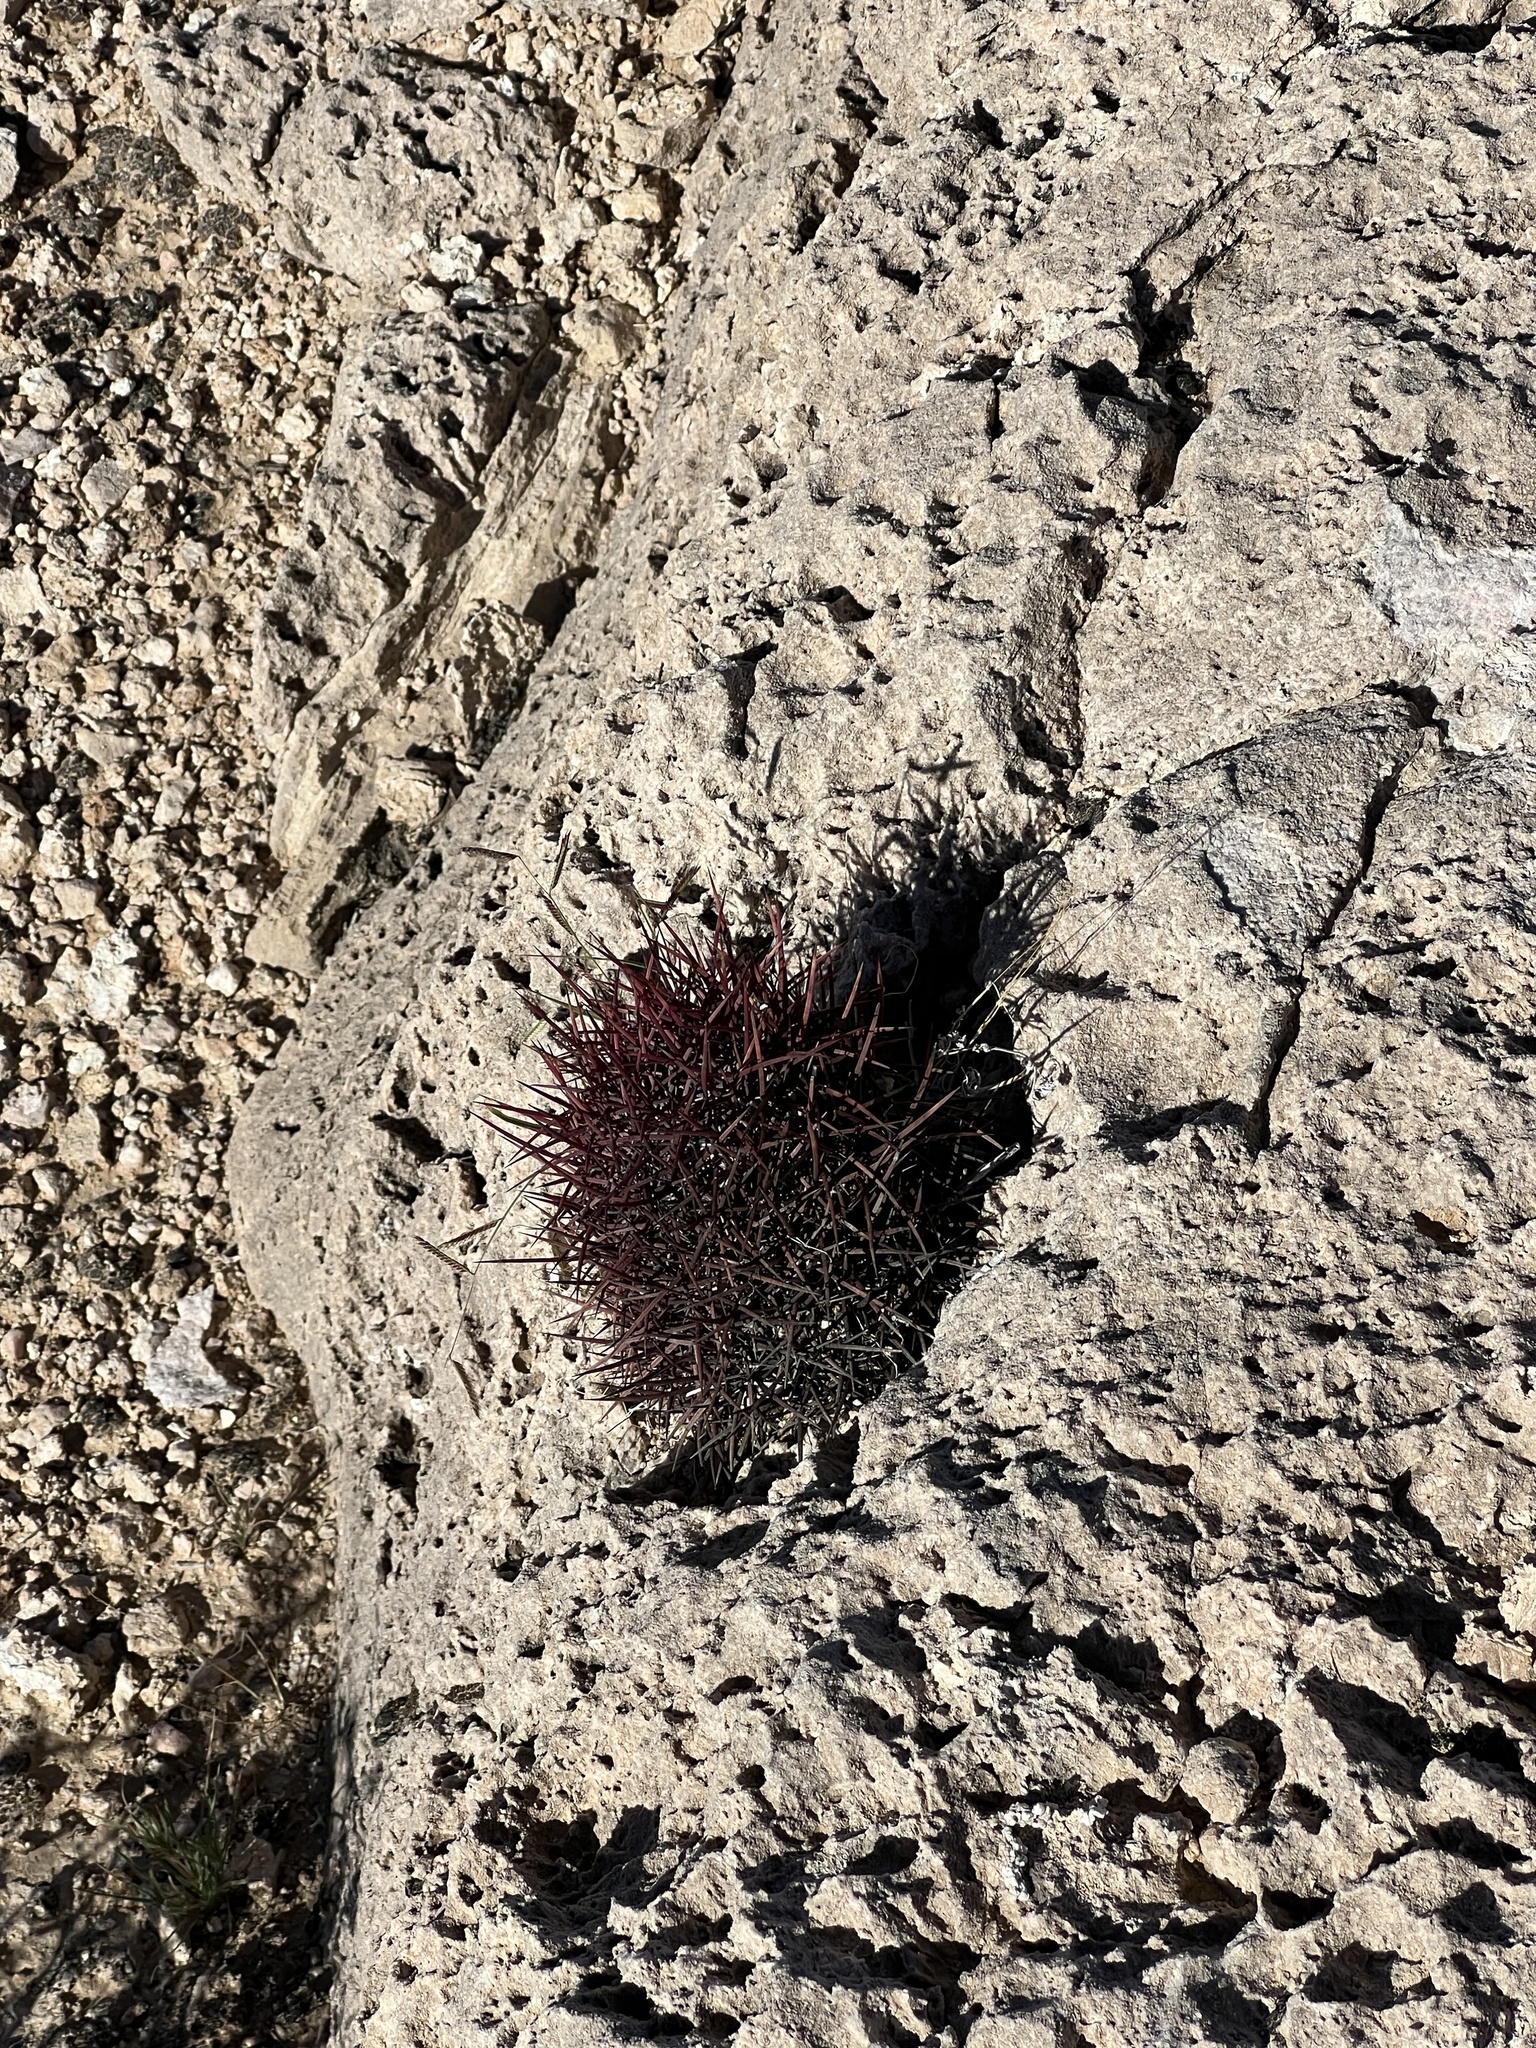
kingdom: Plantae
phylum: Tracheophyta
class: Magnoliopsida
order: Caryophyllales
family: Cactaceae
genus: Sclerocactus
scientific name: Sclerocactus johnsonii
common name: Eight-spine fishhook cactus
